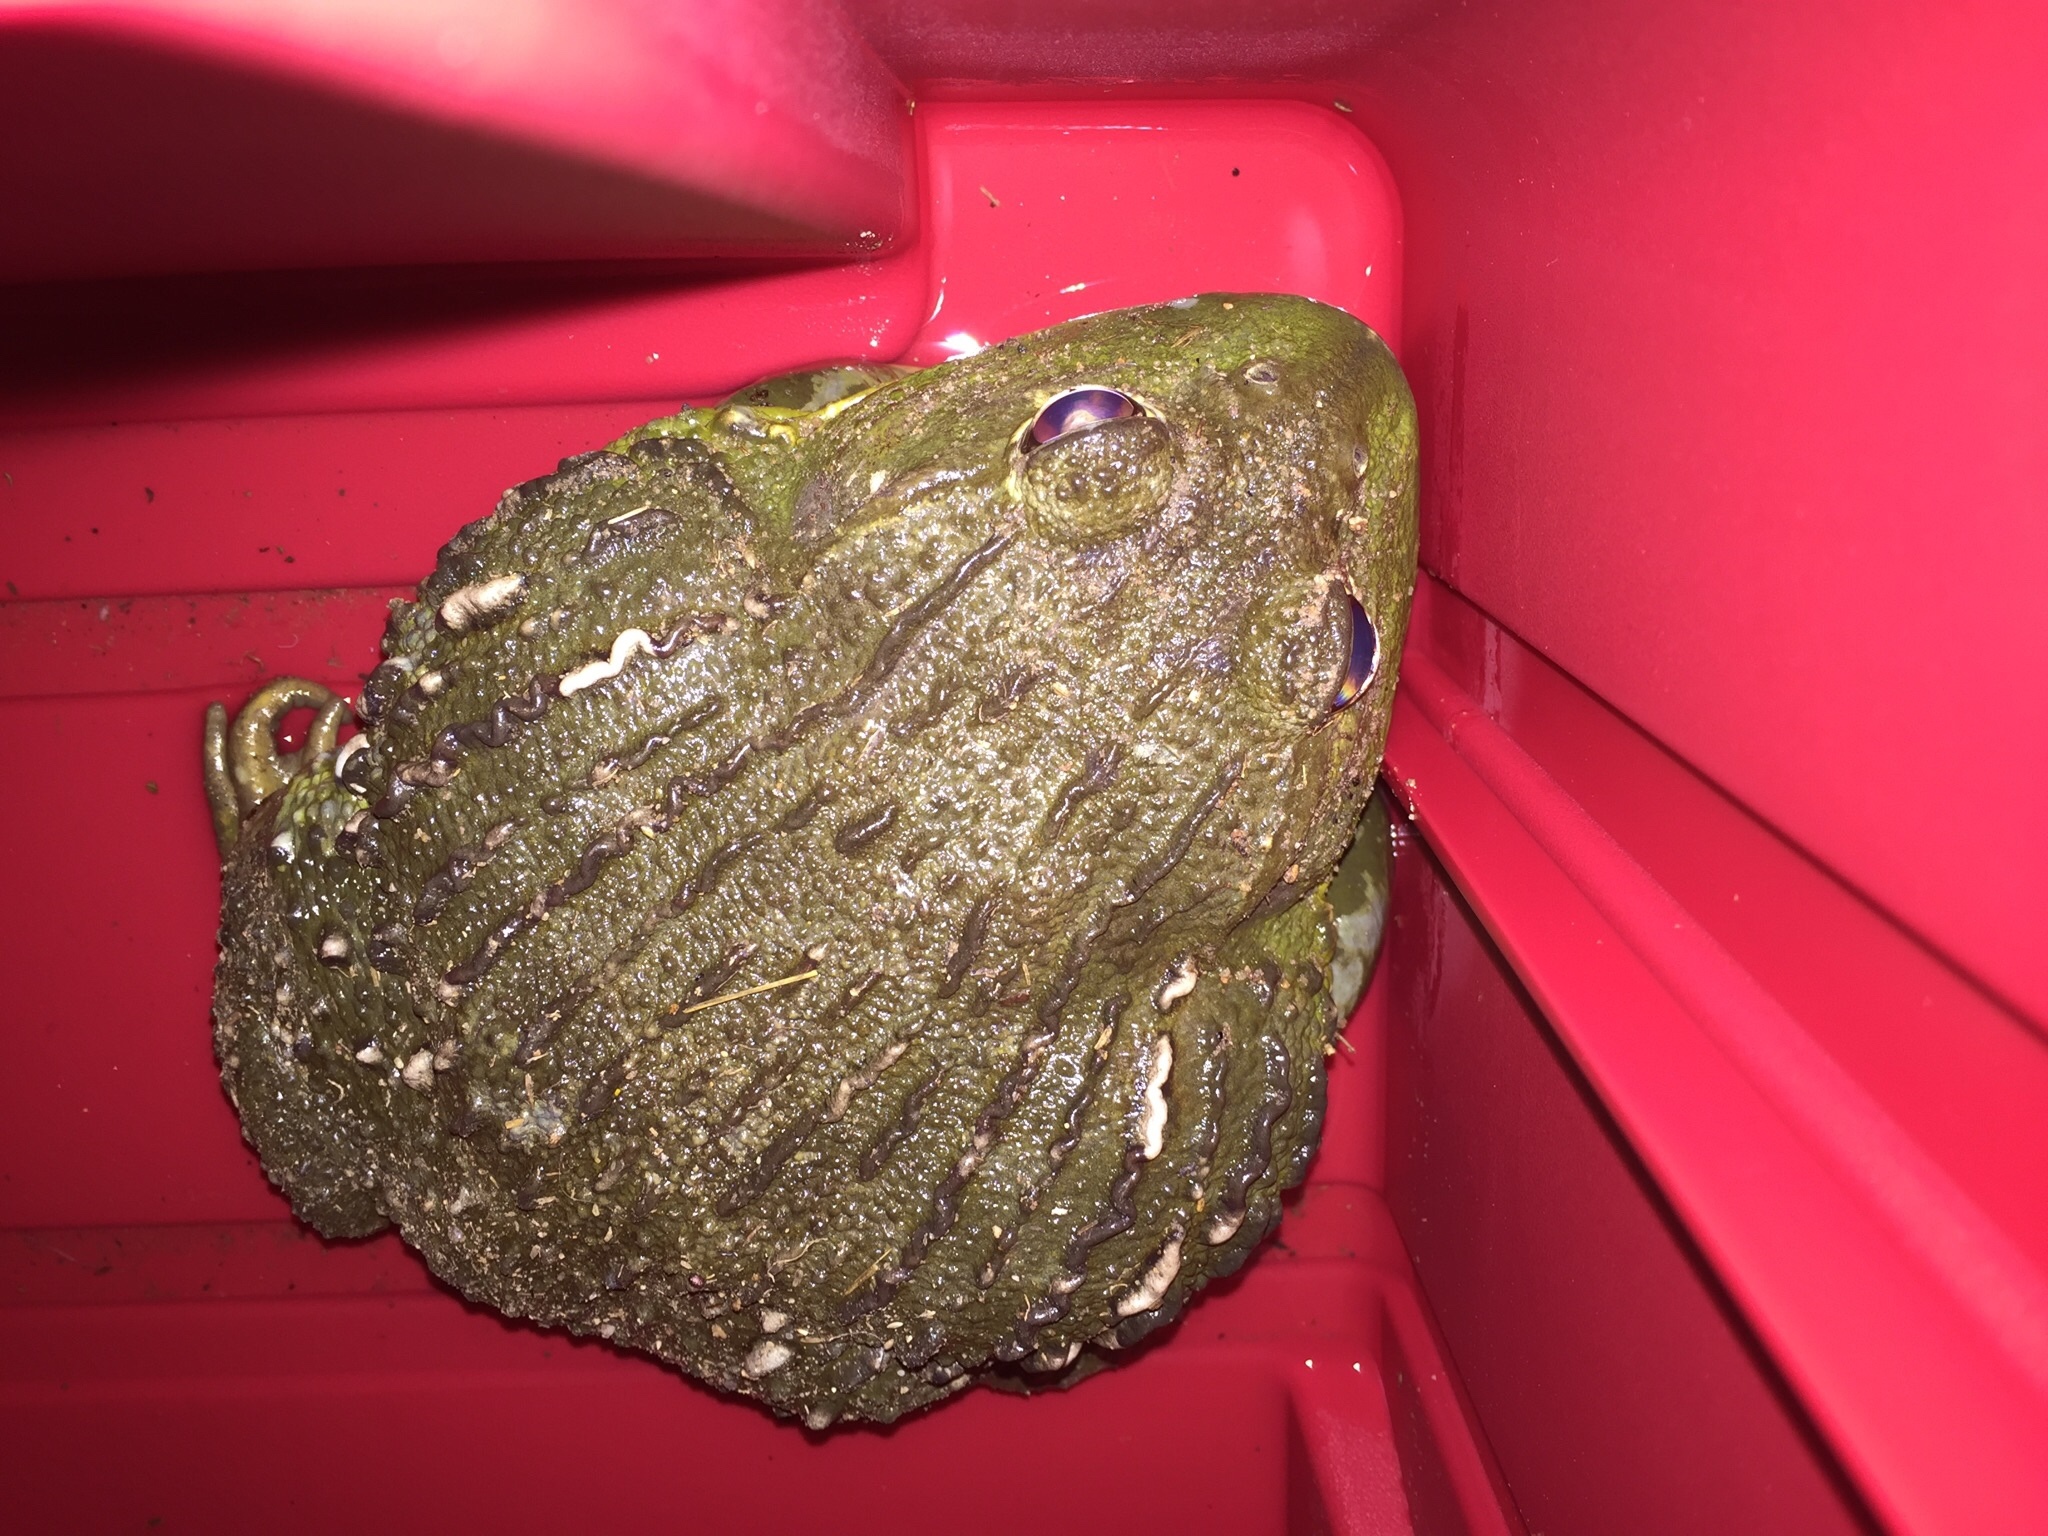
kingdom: Animalia
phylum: Chordata
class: Amphibia
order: Anura
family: Pyxicephalidae
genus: Pyxicephalus
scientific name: Pyxicephalus adspersus
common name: African bullfrog
